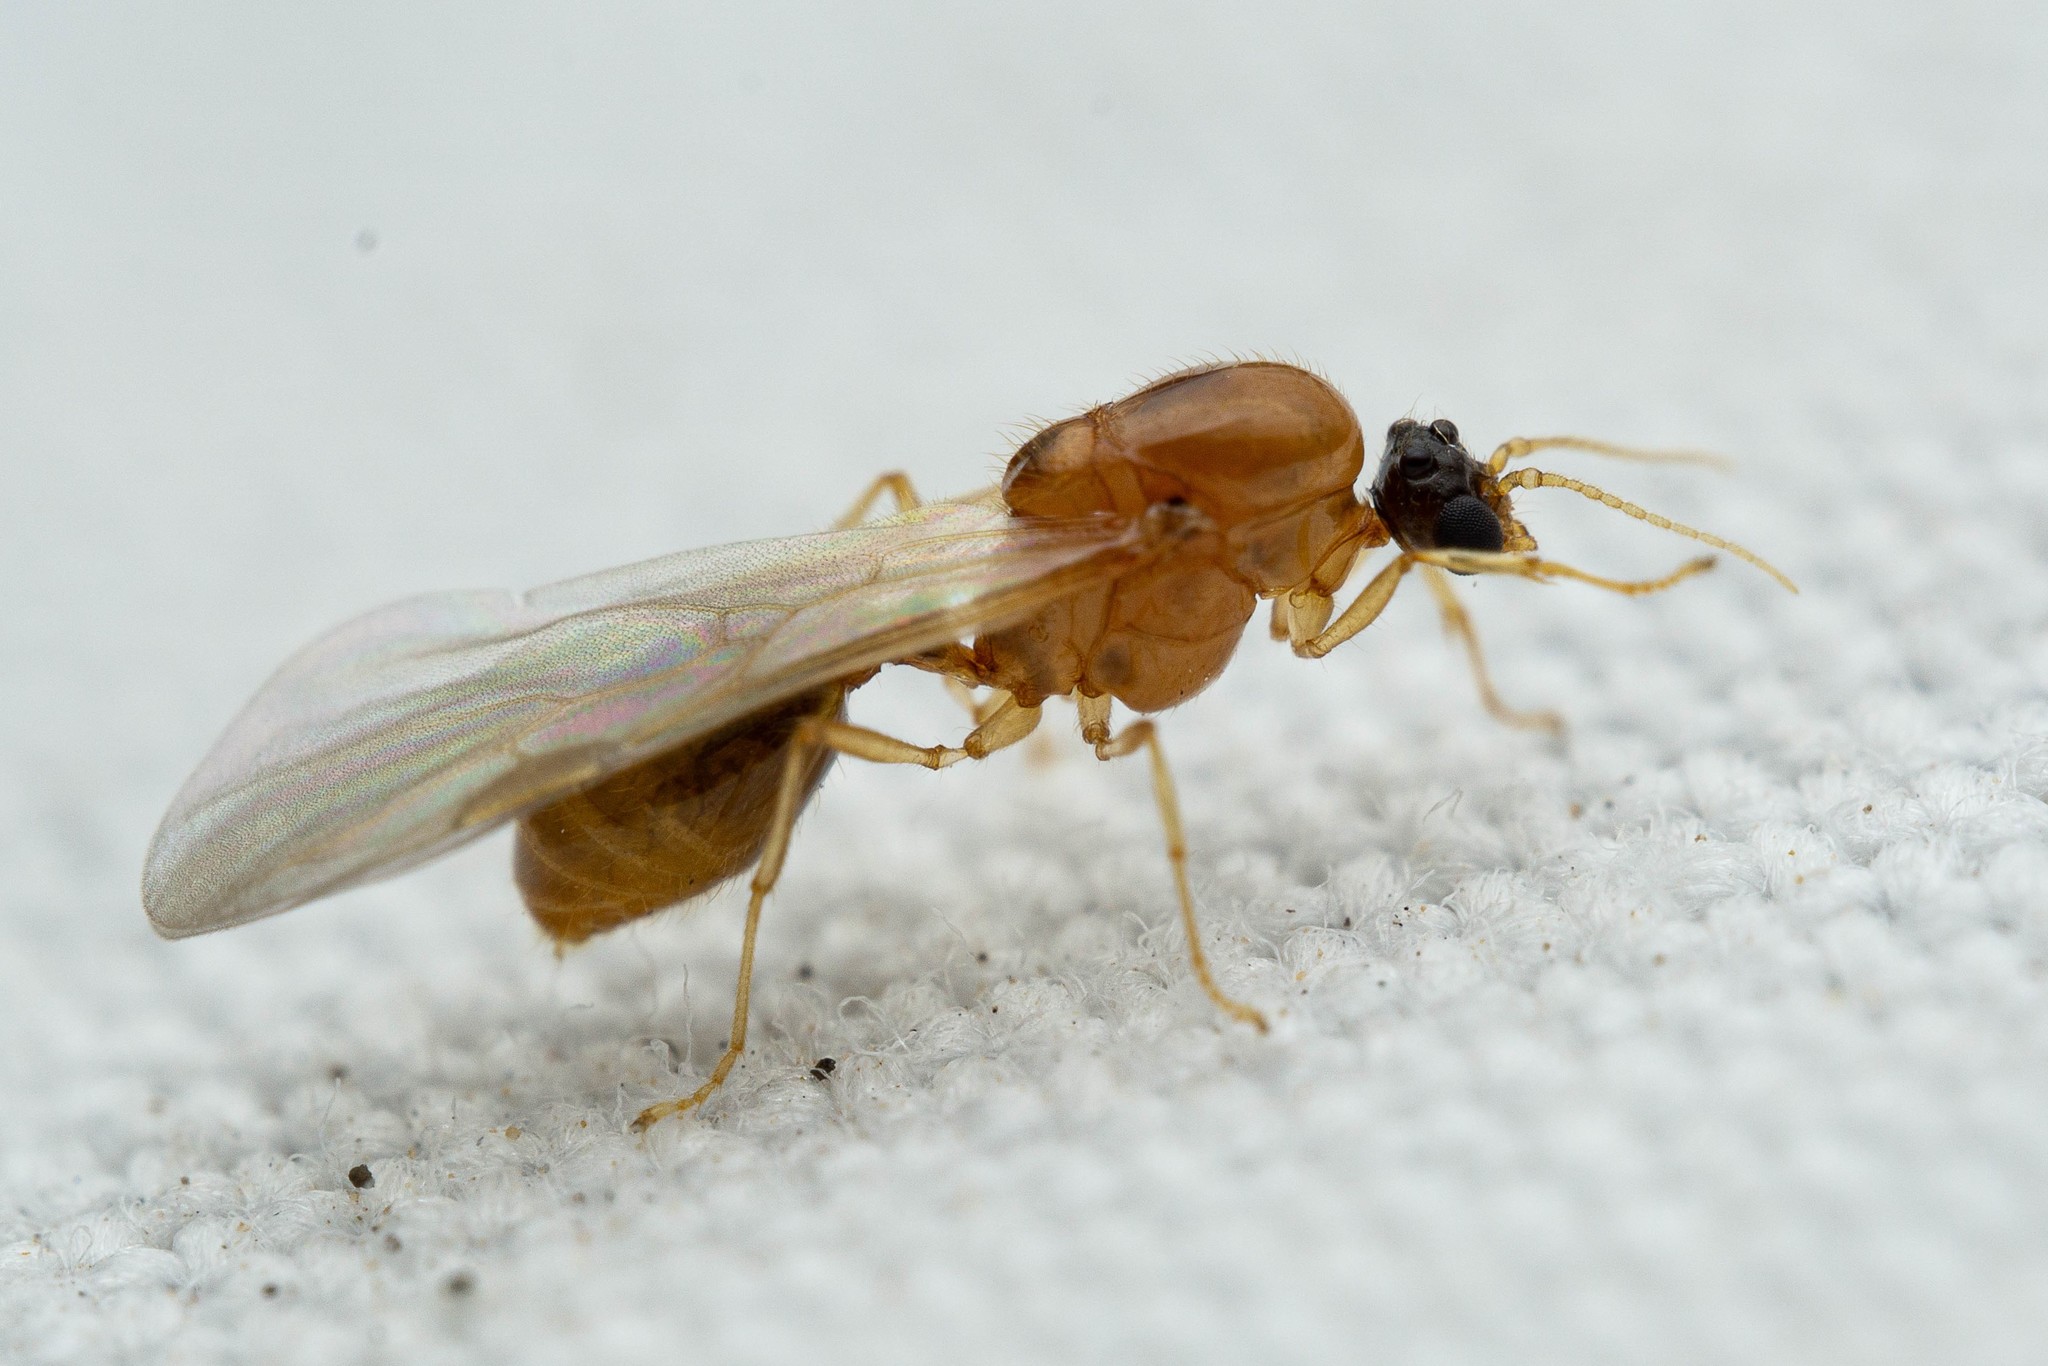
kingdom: Animalia
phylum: Arthropoda
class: Insecta
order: Hymenoptera
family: Formicidae
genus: Solenopsis
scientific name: Solenopsis krockowi
